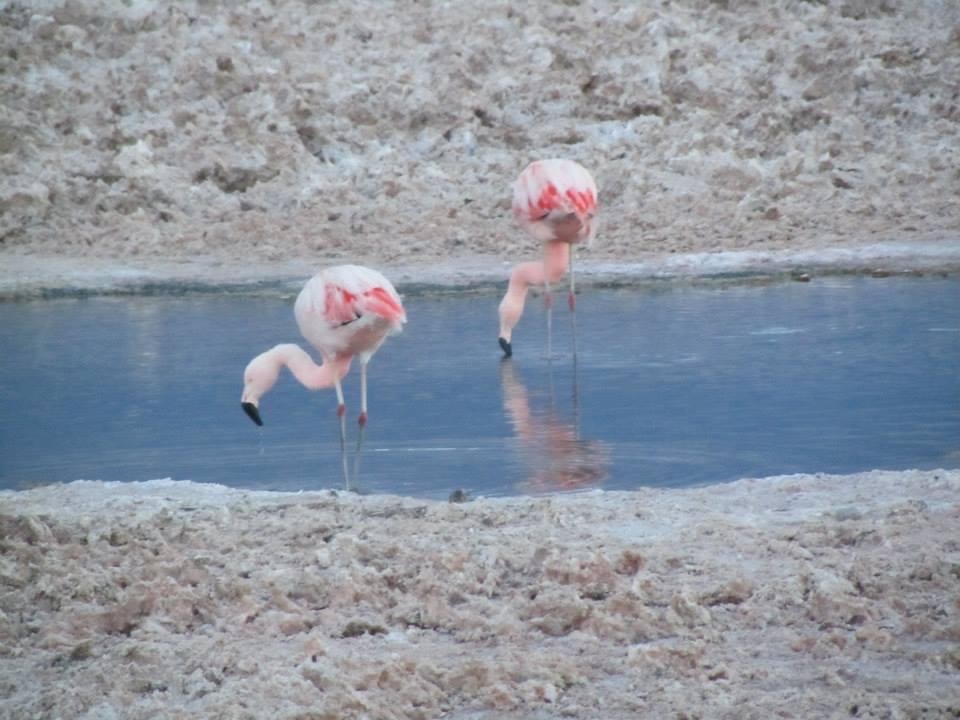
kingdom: Animalia
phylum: Chordata
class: Aves
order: Phoenicopteriformes
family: Phoenicopteridae
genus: Phoenicopterus
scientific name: Phoenicopterus chilensis
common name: Chilean flamingo
